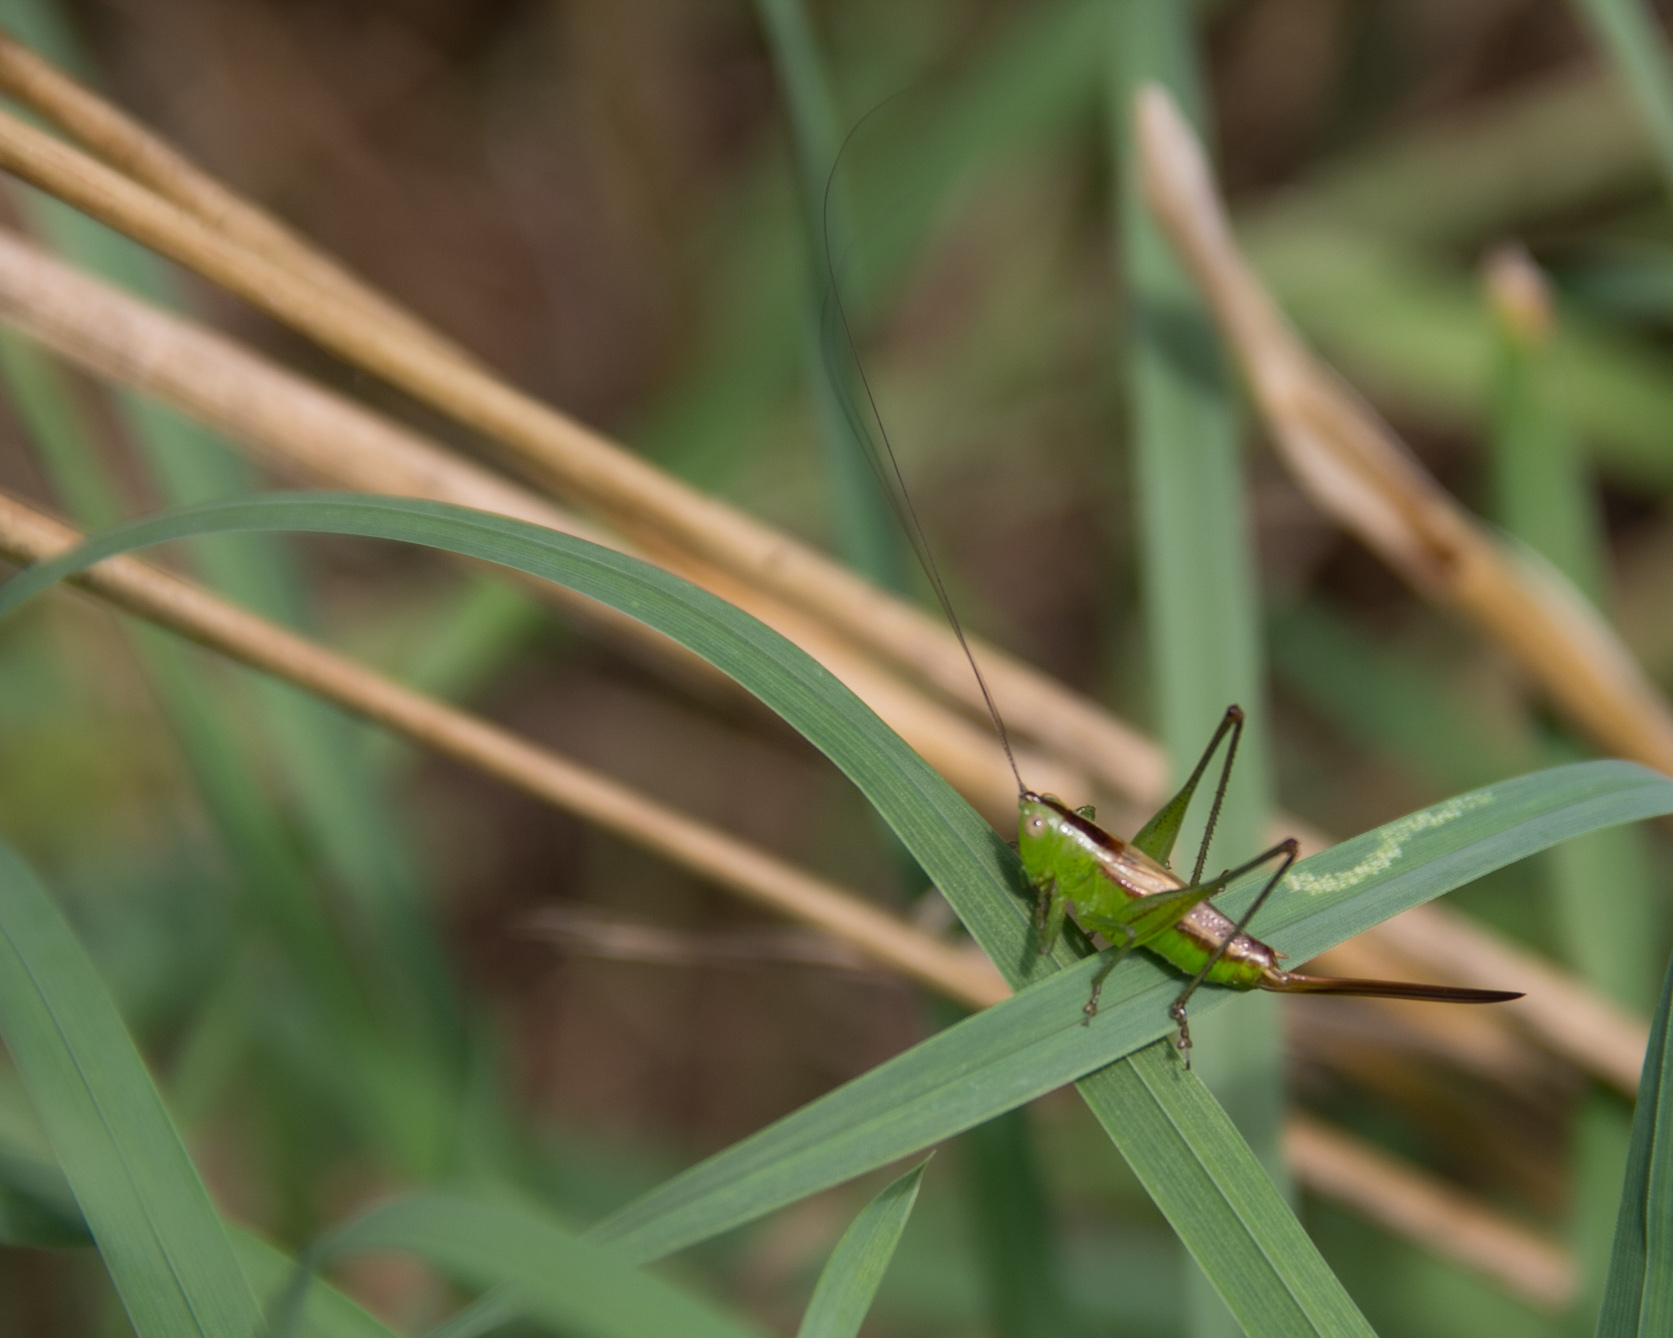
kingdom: Animalia
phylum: Arthropoda
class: Insecta
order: Orthoptera
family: Tettigoniidae
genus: Conocephalus
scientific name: Conocephalus brevipennis
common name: Short-winged meadow katydid
